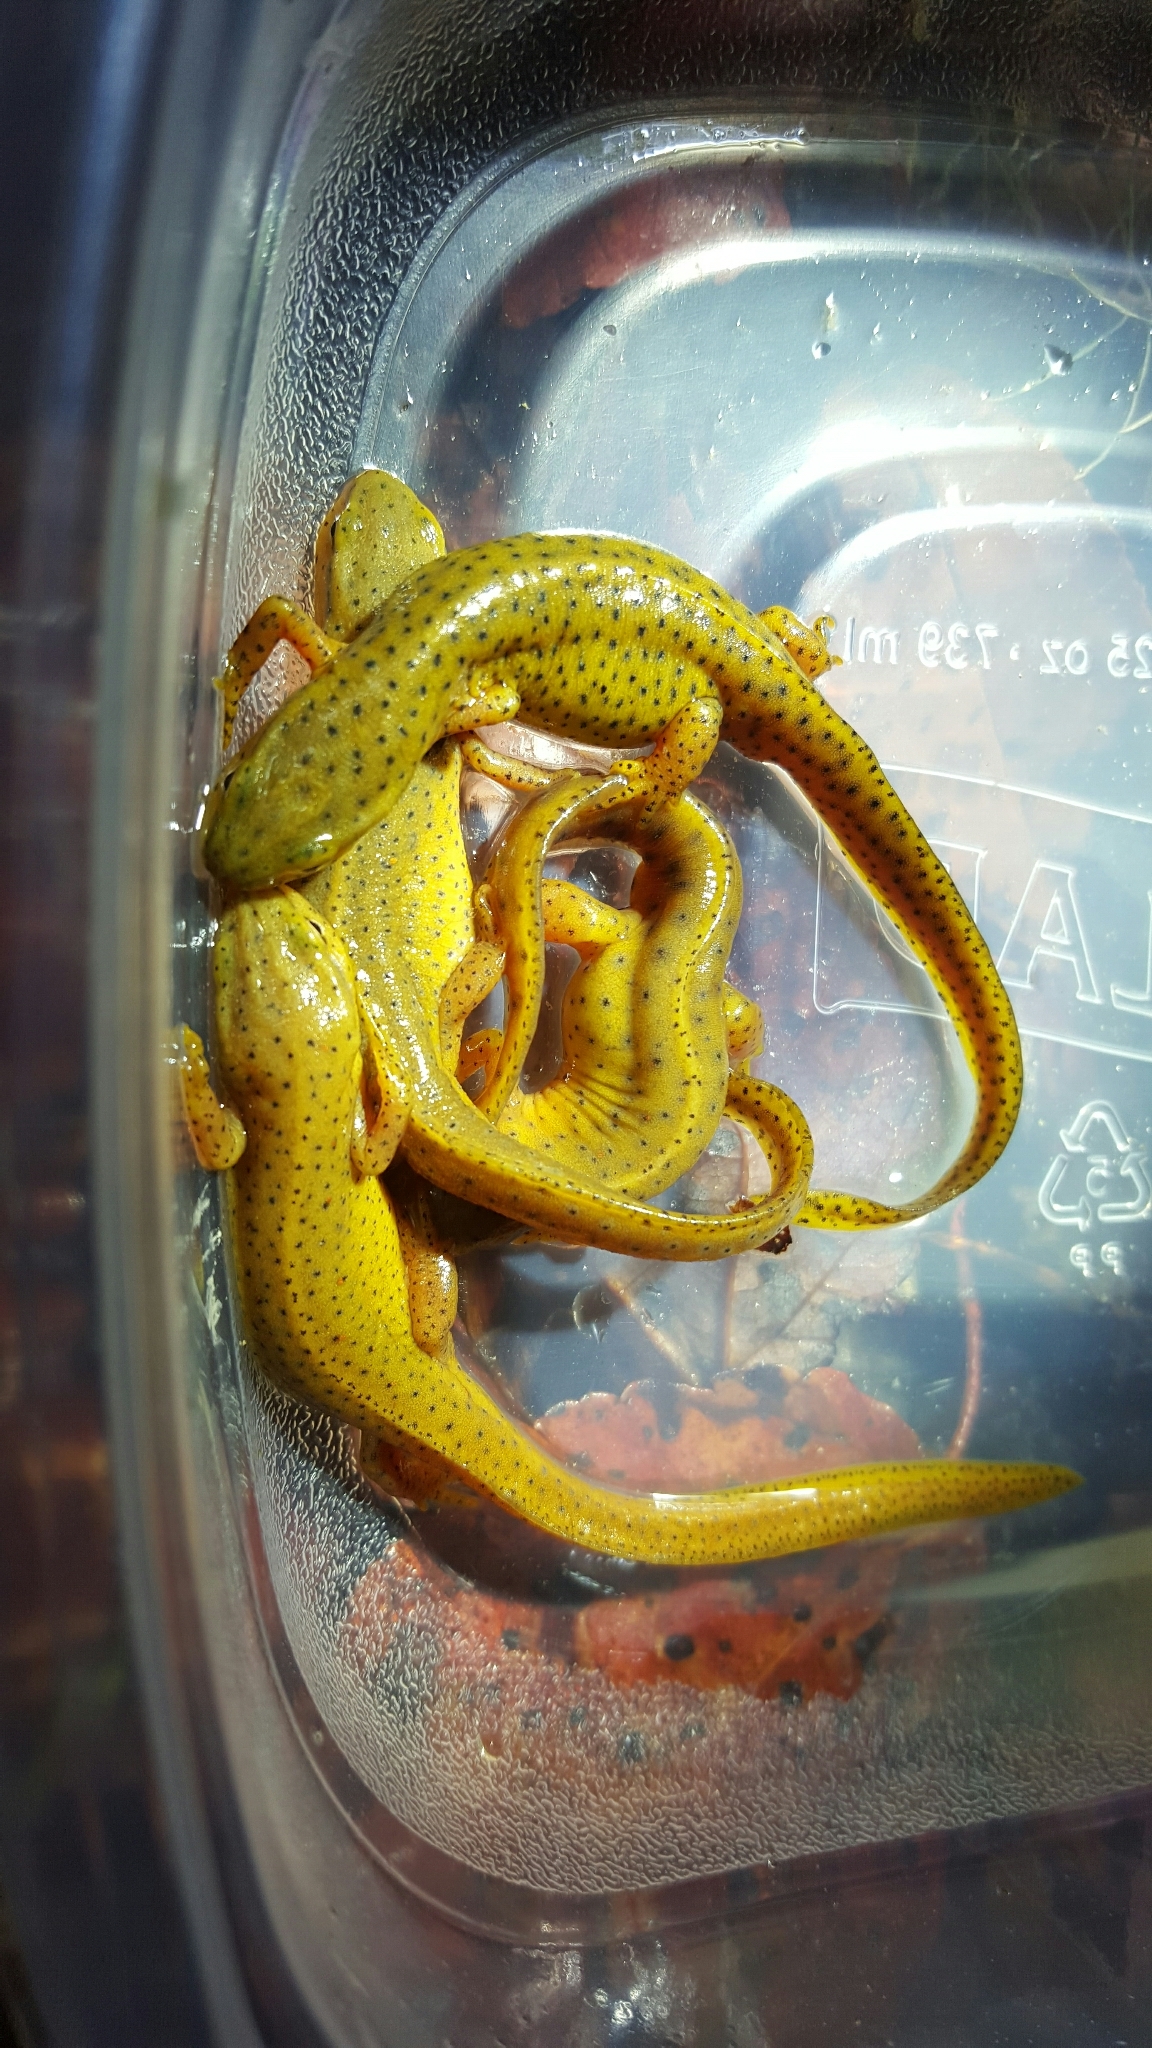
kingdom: Animalia
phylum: Chordata
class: Amphibia
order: Caudata
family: Salamandridae
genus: Notophthalmus
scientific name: Notophthalmus viridescens
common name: Eastern newt
